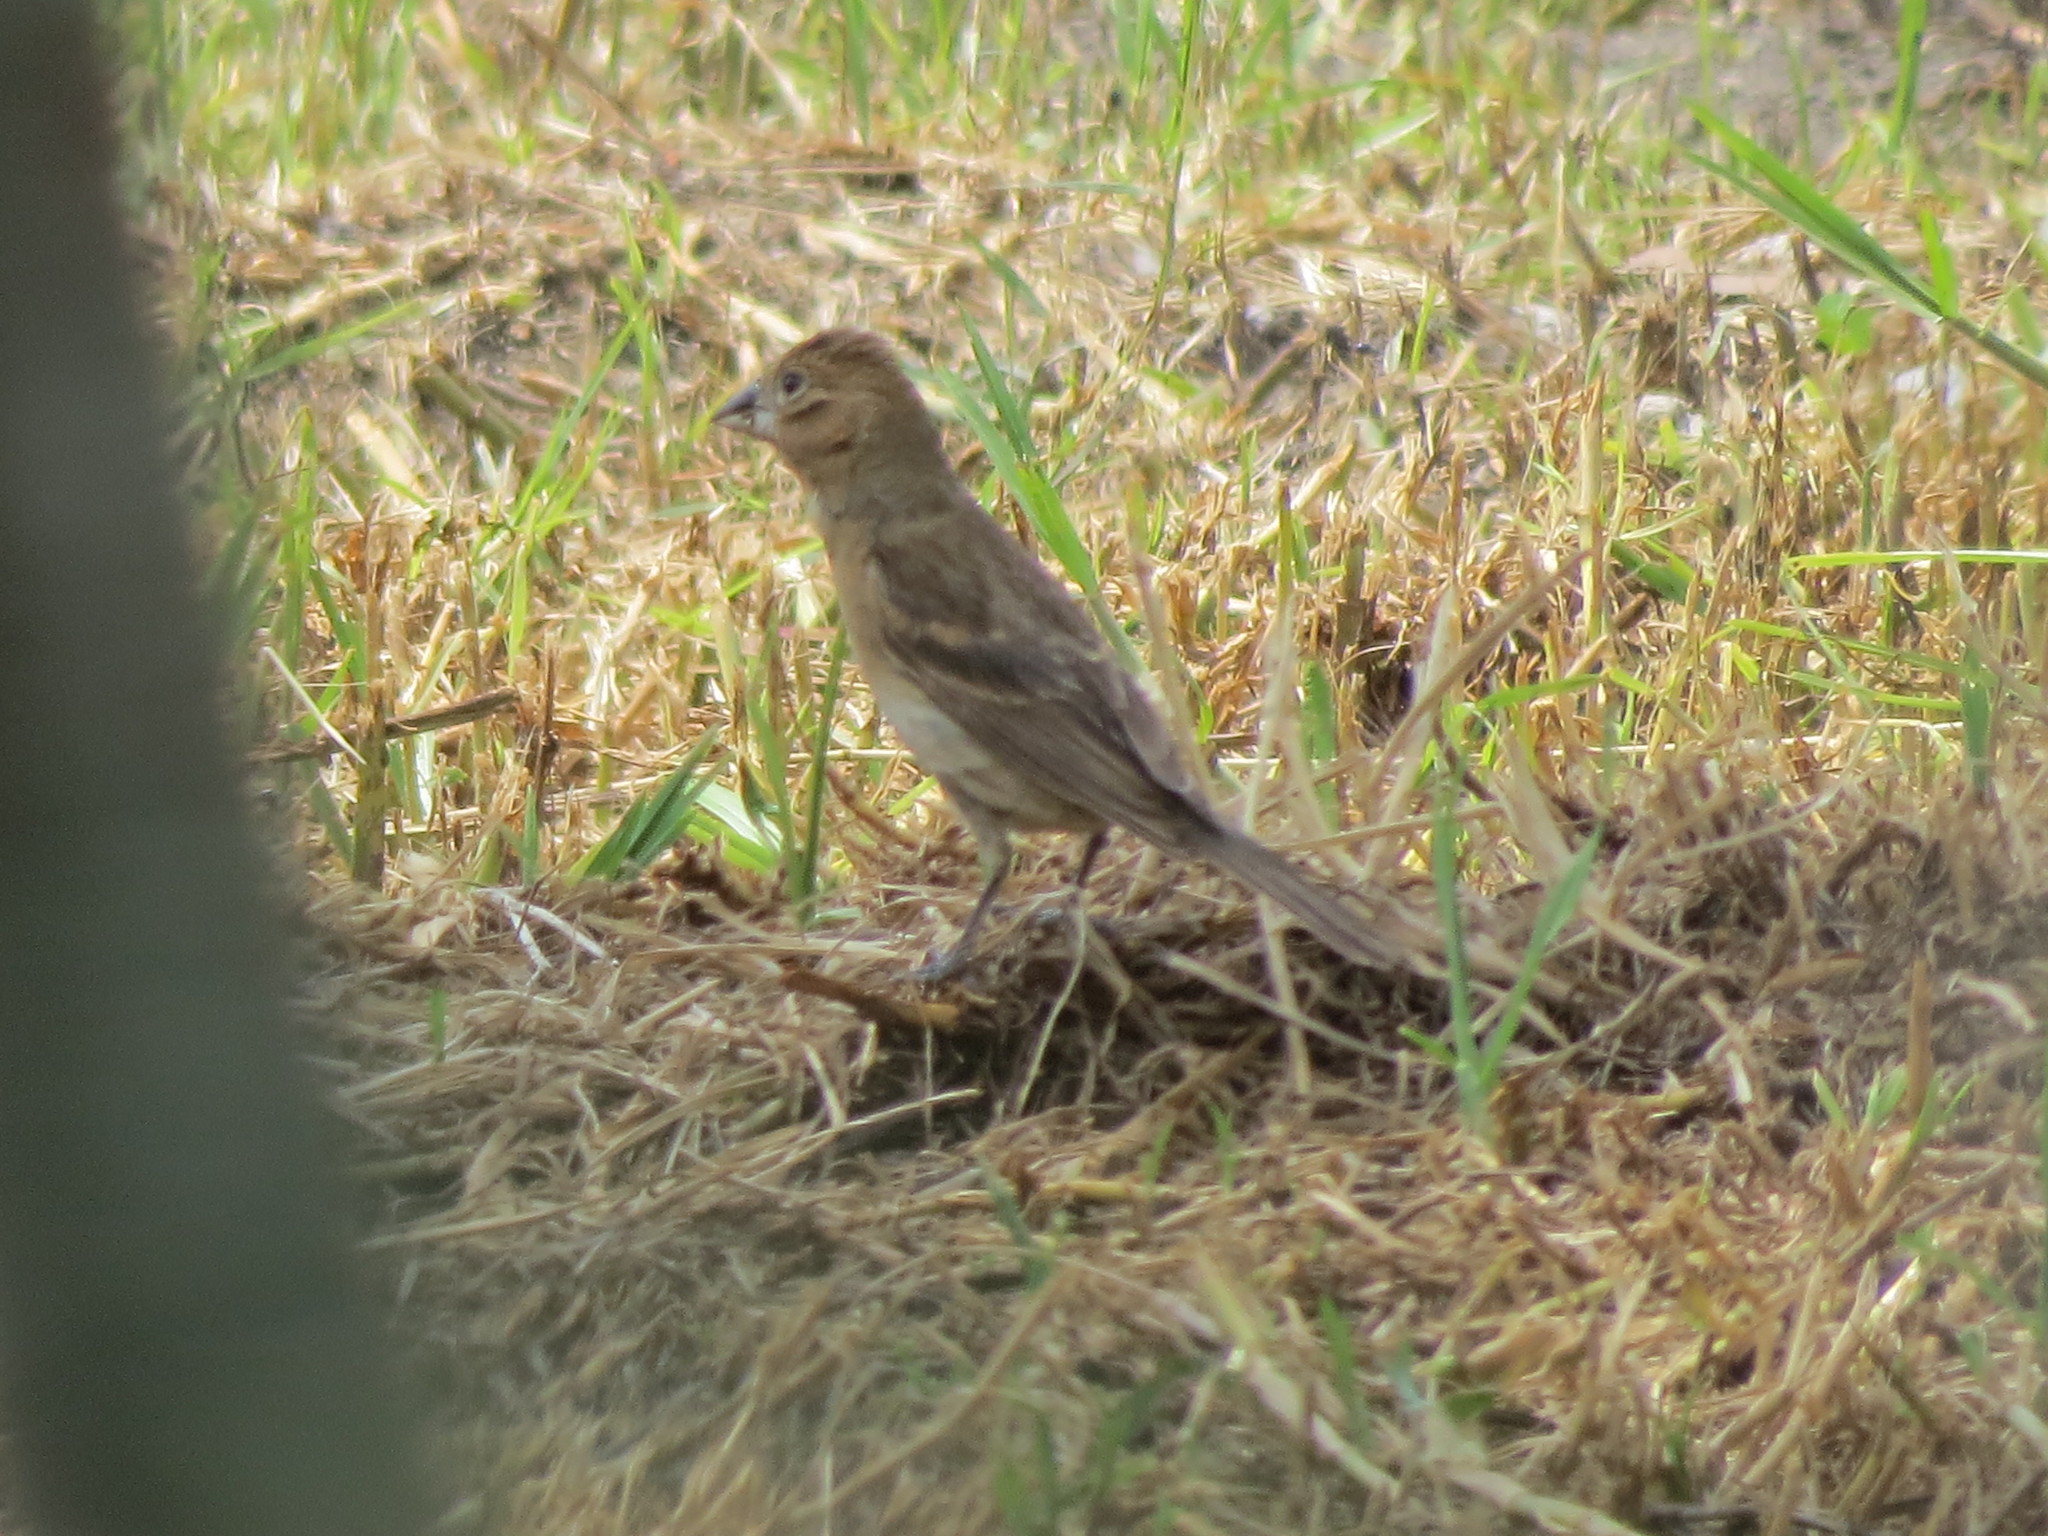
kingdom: Animalia
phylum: Chordata
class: Aves
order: Passeriformes
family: Cardinalidae
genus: Passerina
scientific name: Passerina caerulea
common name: Blue grosbeak
